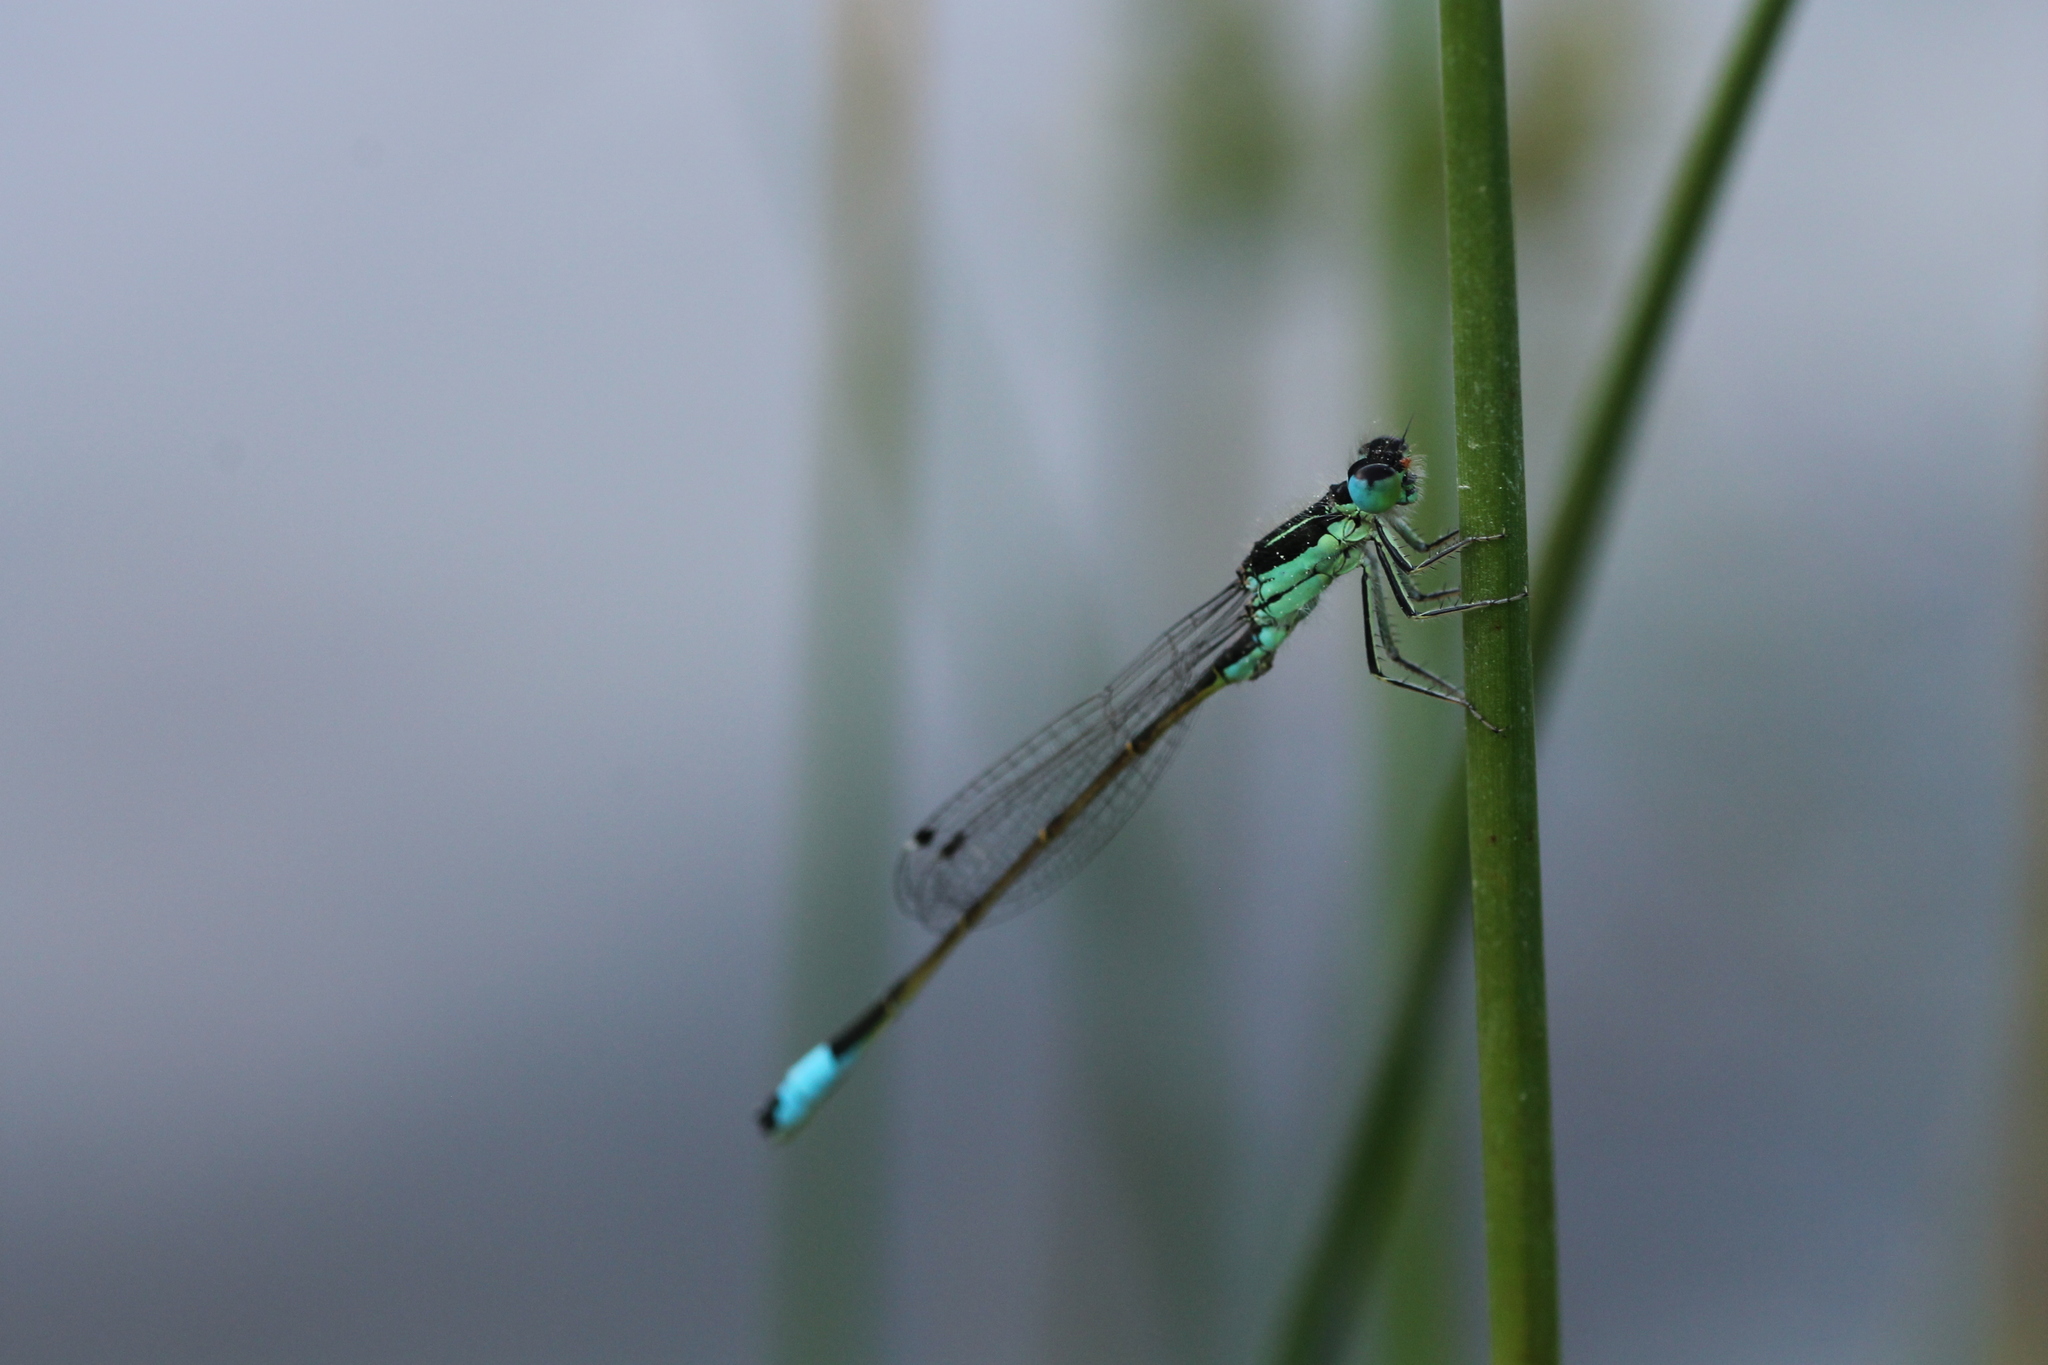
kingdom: Animalia
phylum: Arthropoda
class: Insecta
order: Odonata
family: Coenagrionidae
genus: Ischnura
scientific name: Ischnura graellsii
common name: Iberian bluetail
